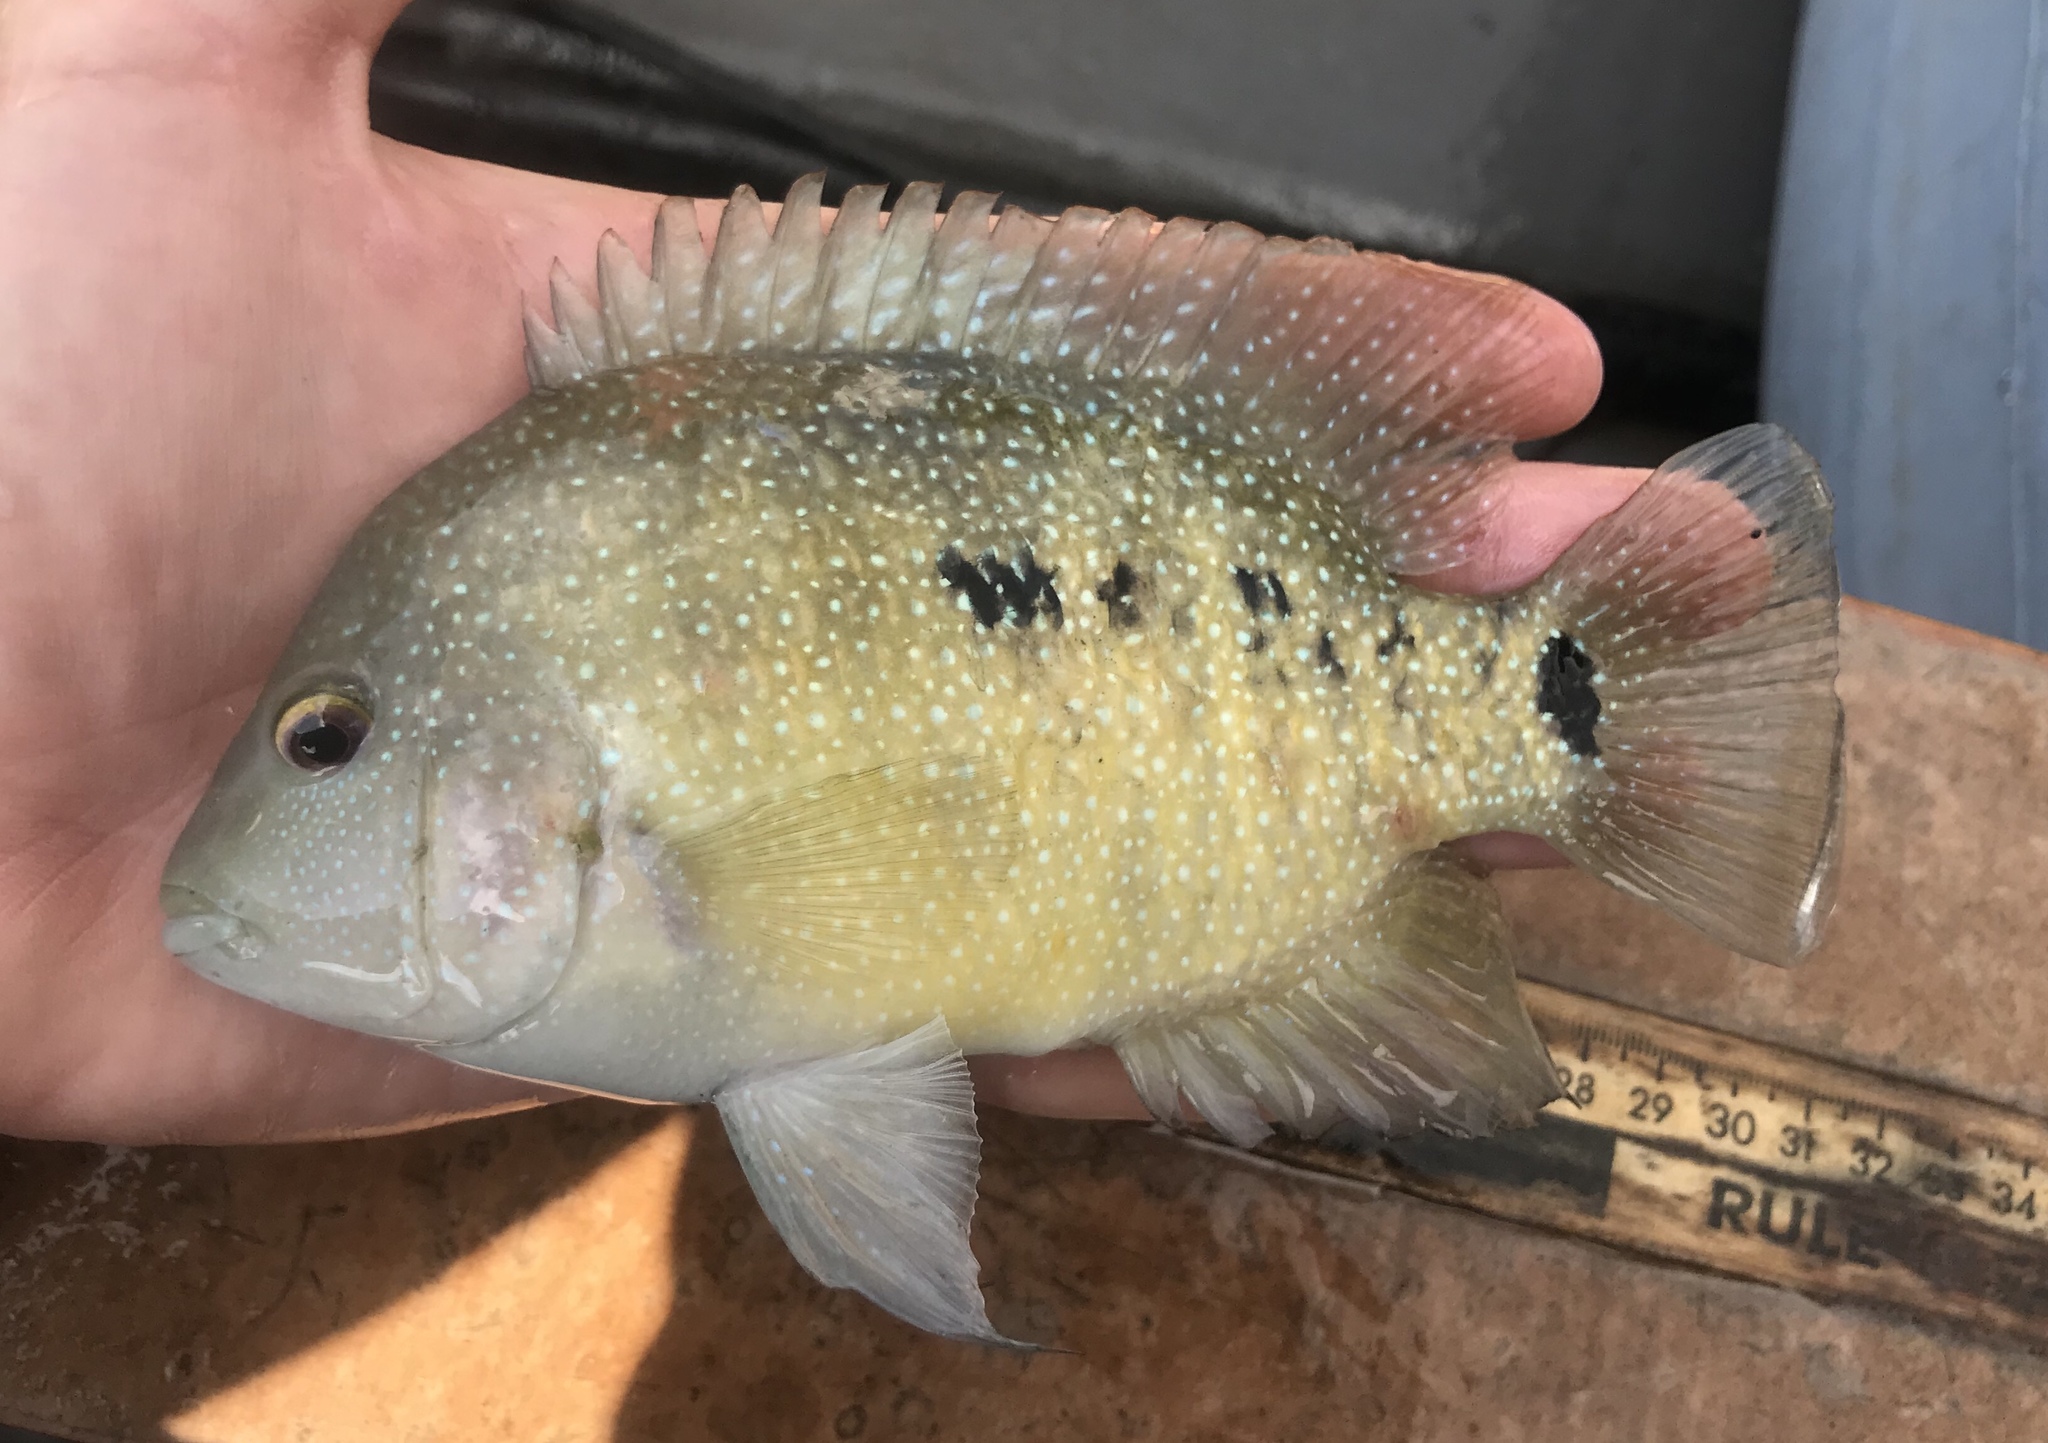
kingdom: Animalia
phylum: Chordata
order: Perciformes
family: Cichlidae
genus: Herichthys
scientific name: Herichthys cyanoguttatus
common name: Rio grande cichlid
